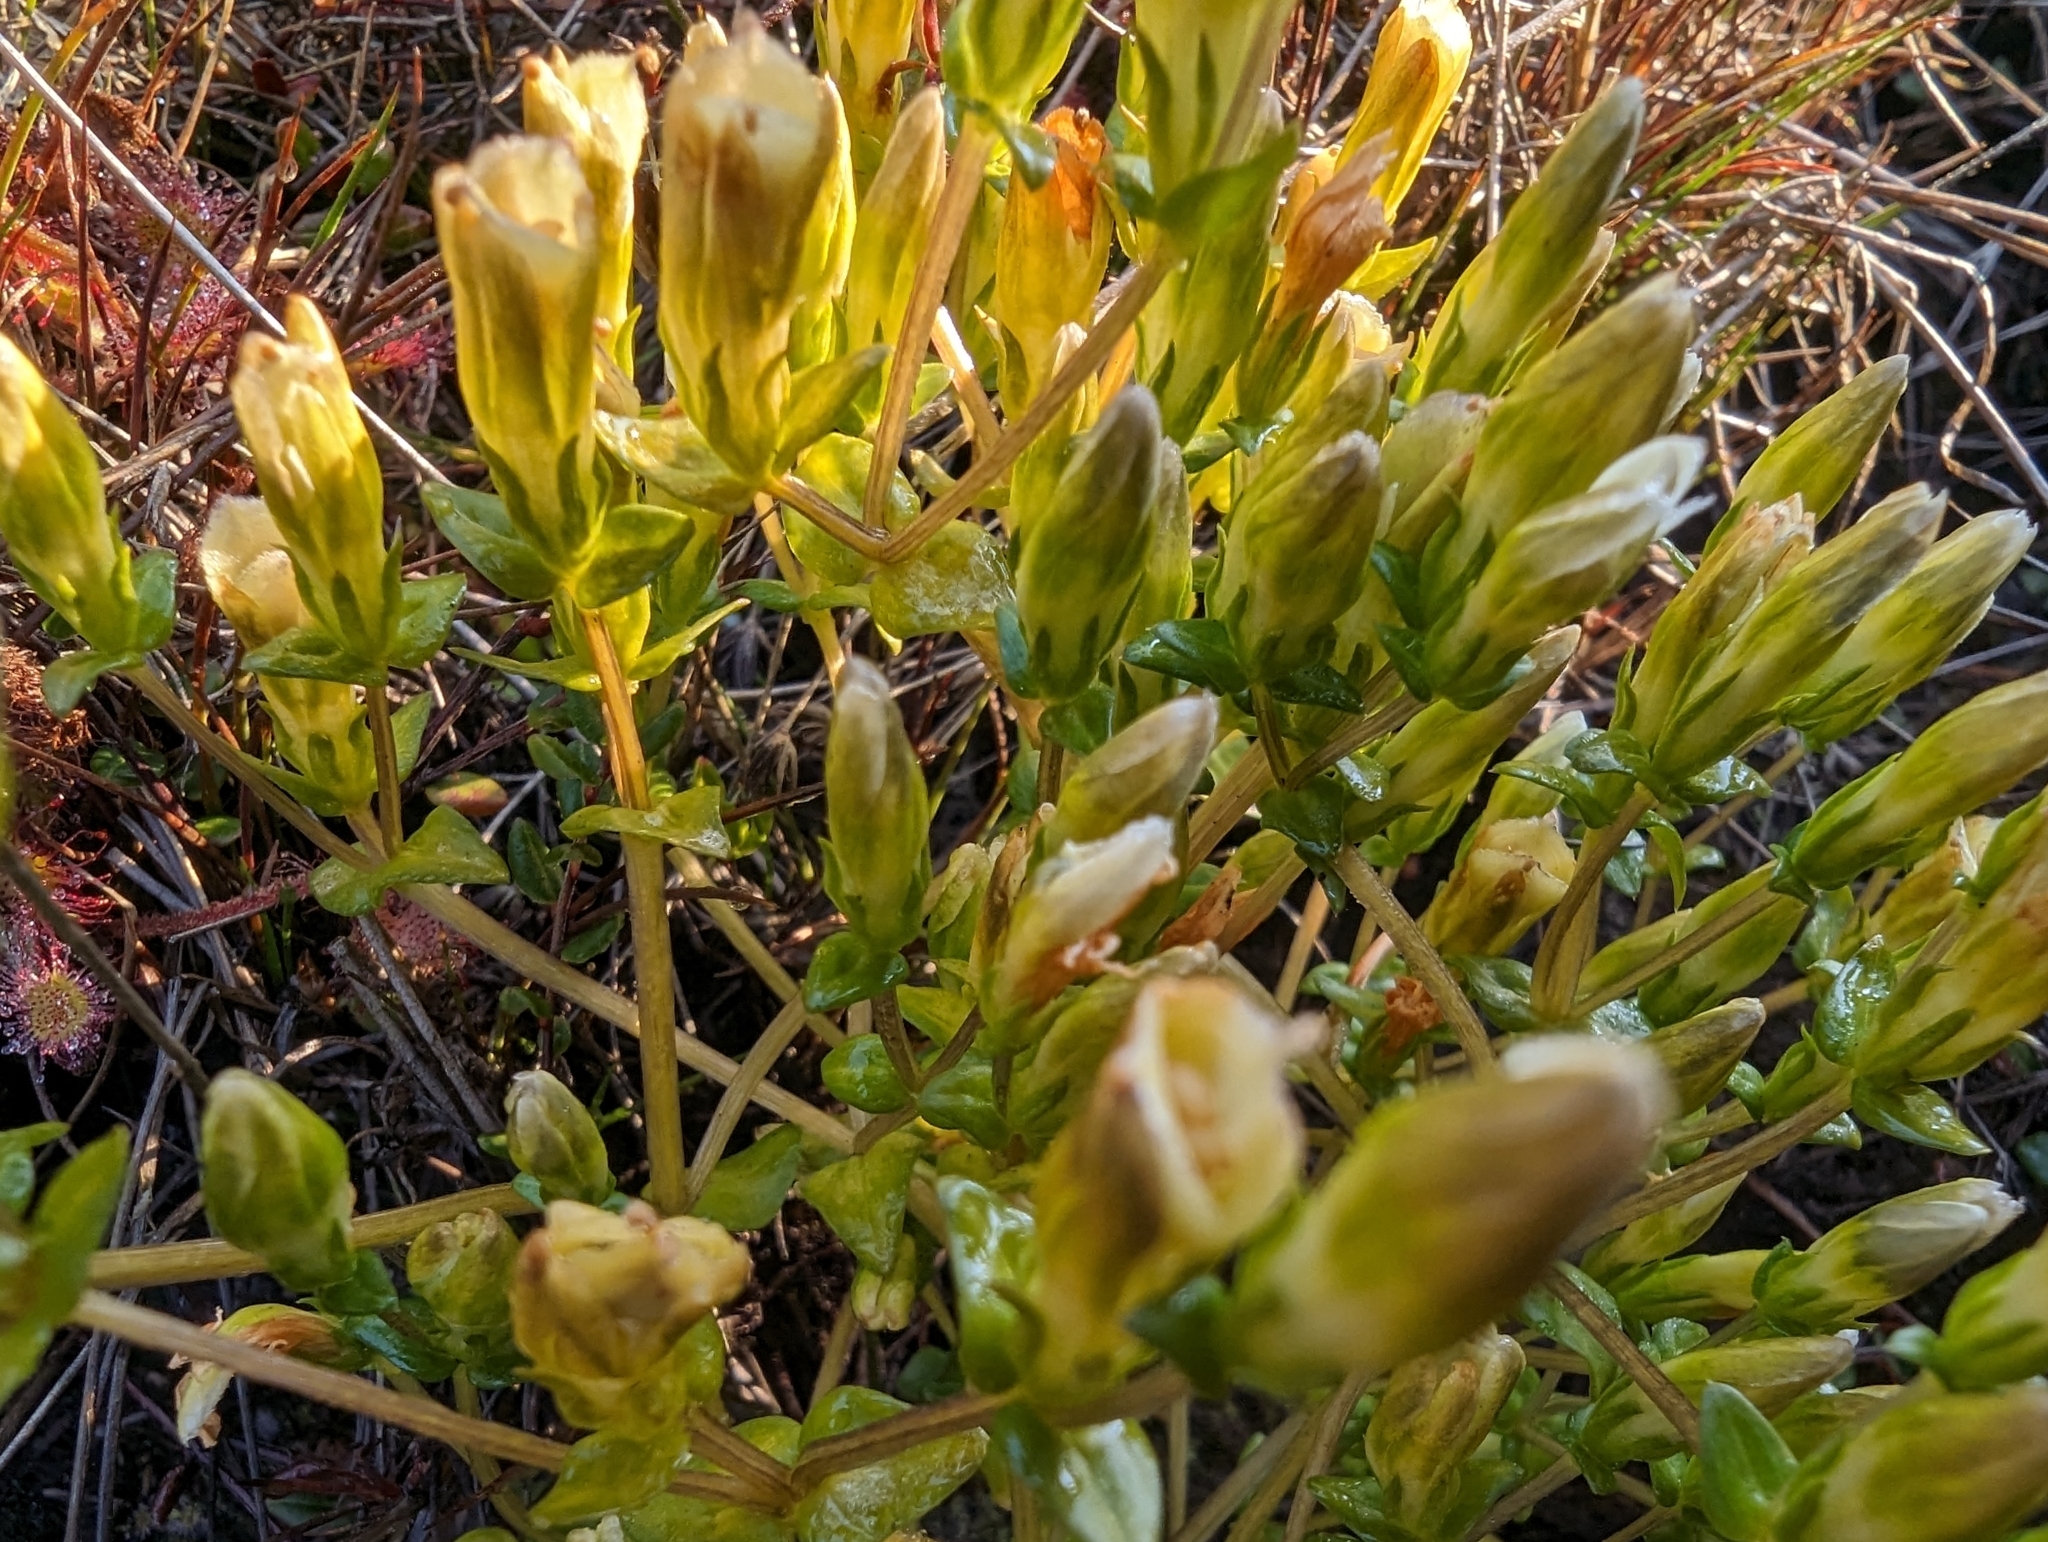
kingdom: Plantae
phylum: Tracheophyta
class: Magnoliopsida
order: Gentianales
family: Gentianaceae
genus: Gentiana
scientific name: Gentiana douglasiana
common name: Swamp gentian
